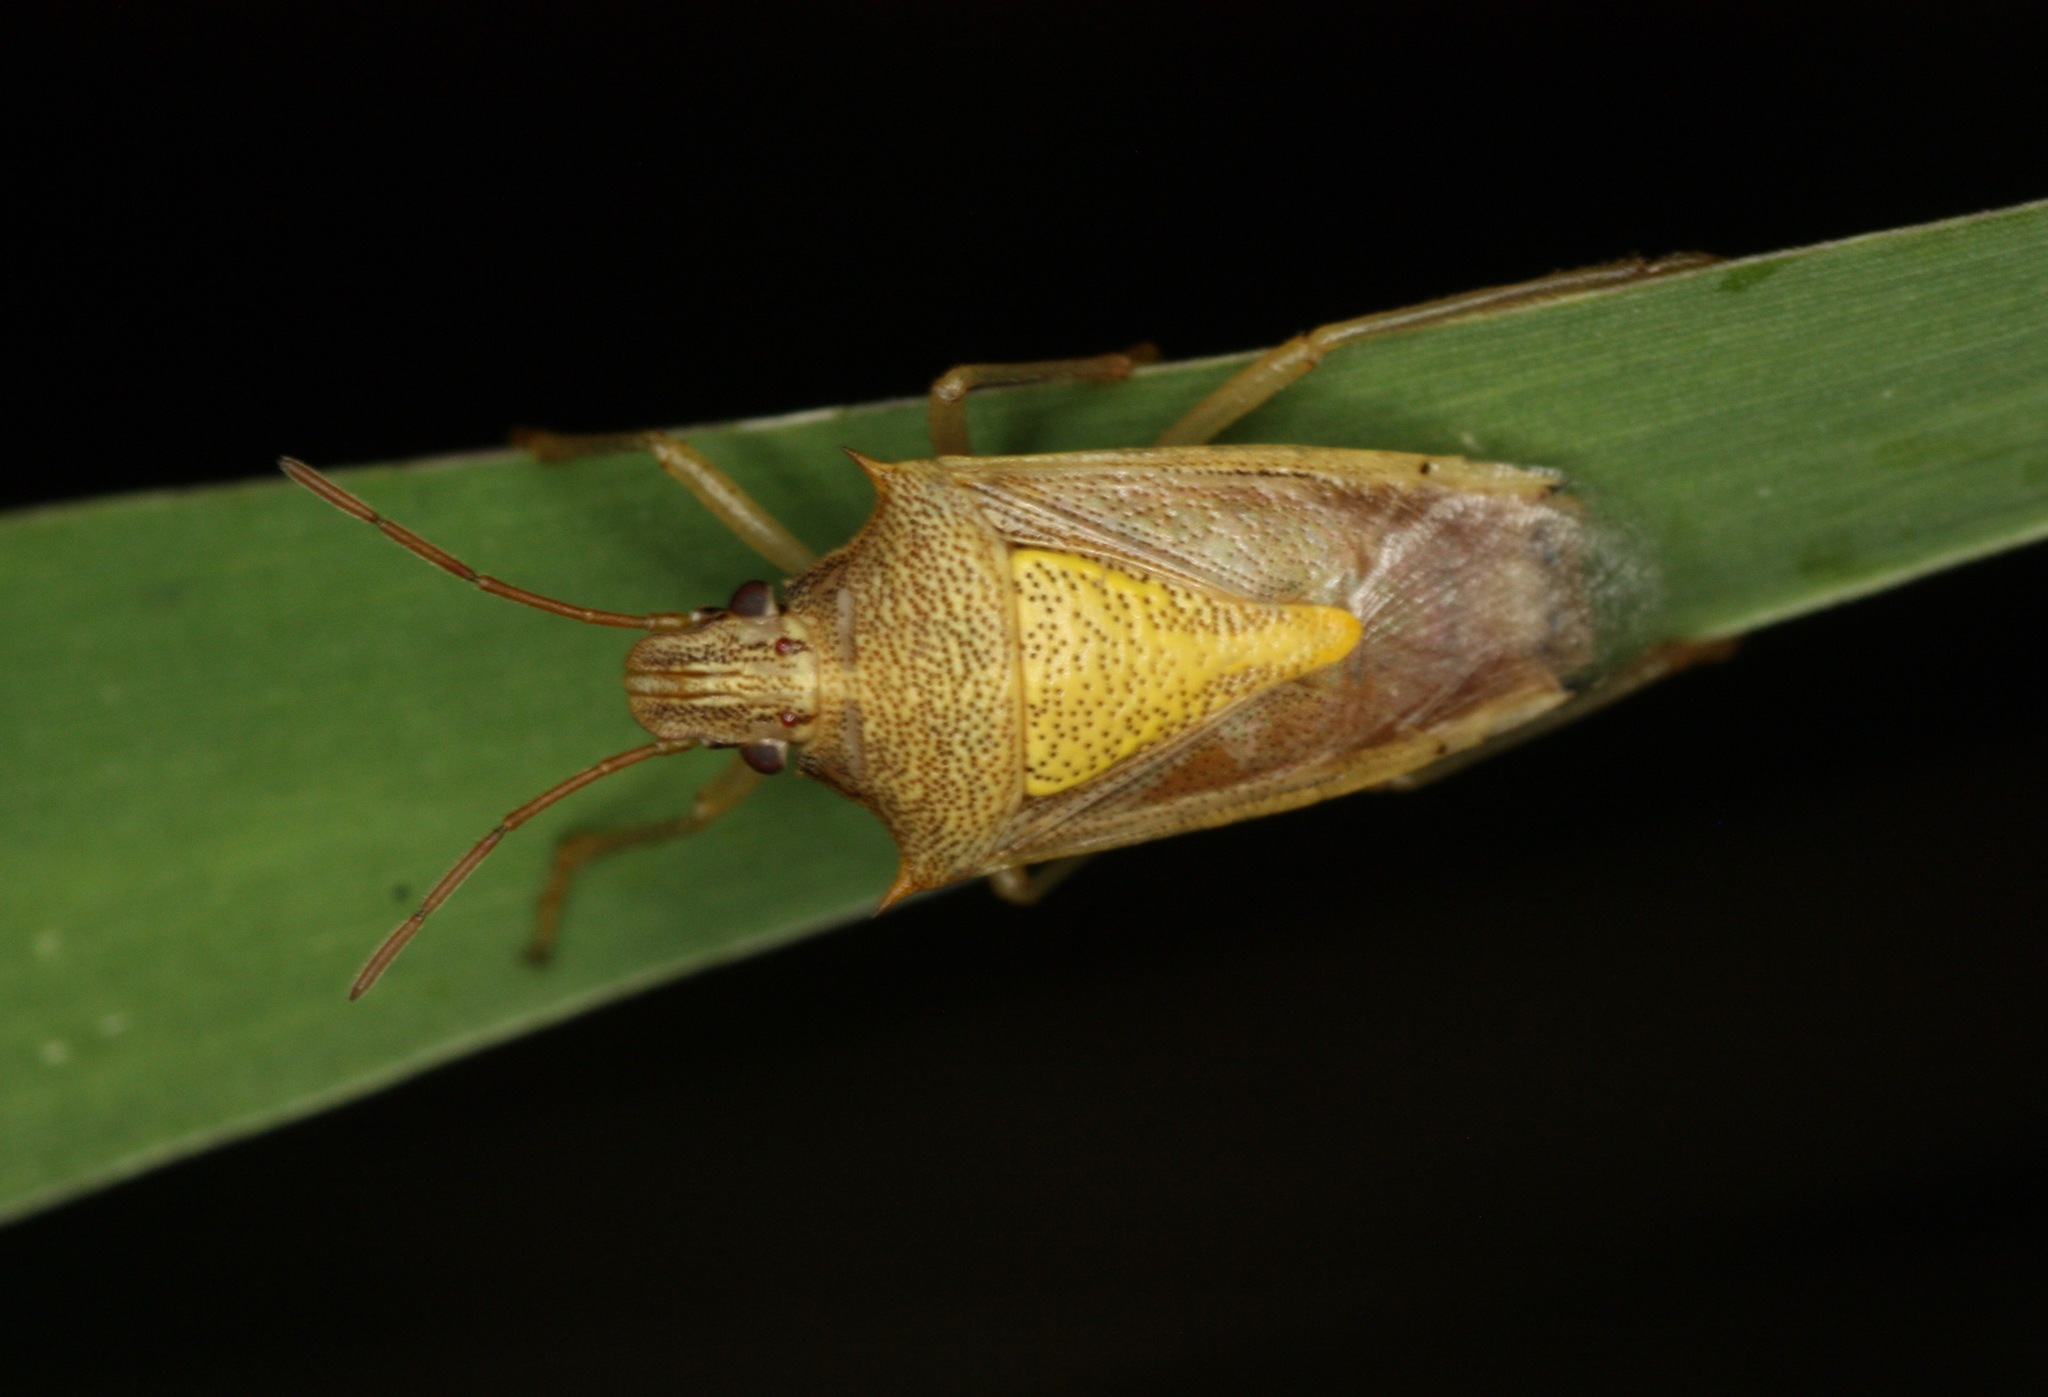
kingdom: Animalia
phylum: Arthropoda
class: Insecta
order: Hemiptera
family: Pentatomidae
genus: Oebalus
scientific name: Oebalus pugnax
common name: Rice stink bug
